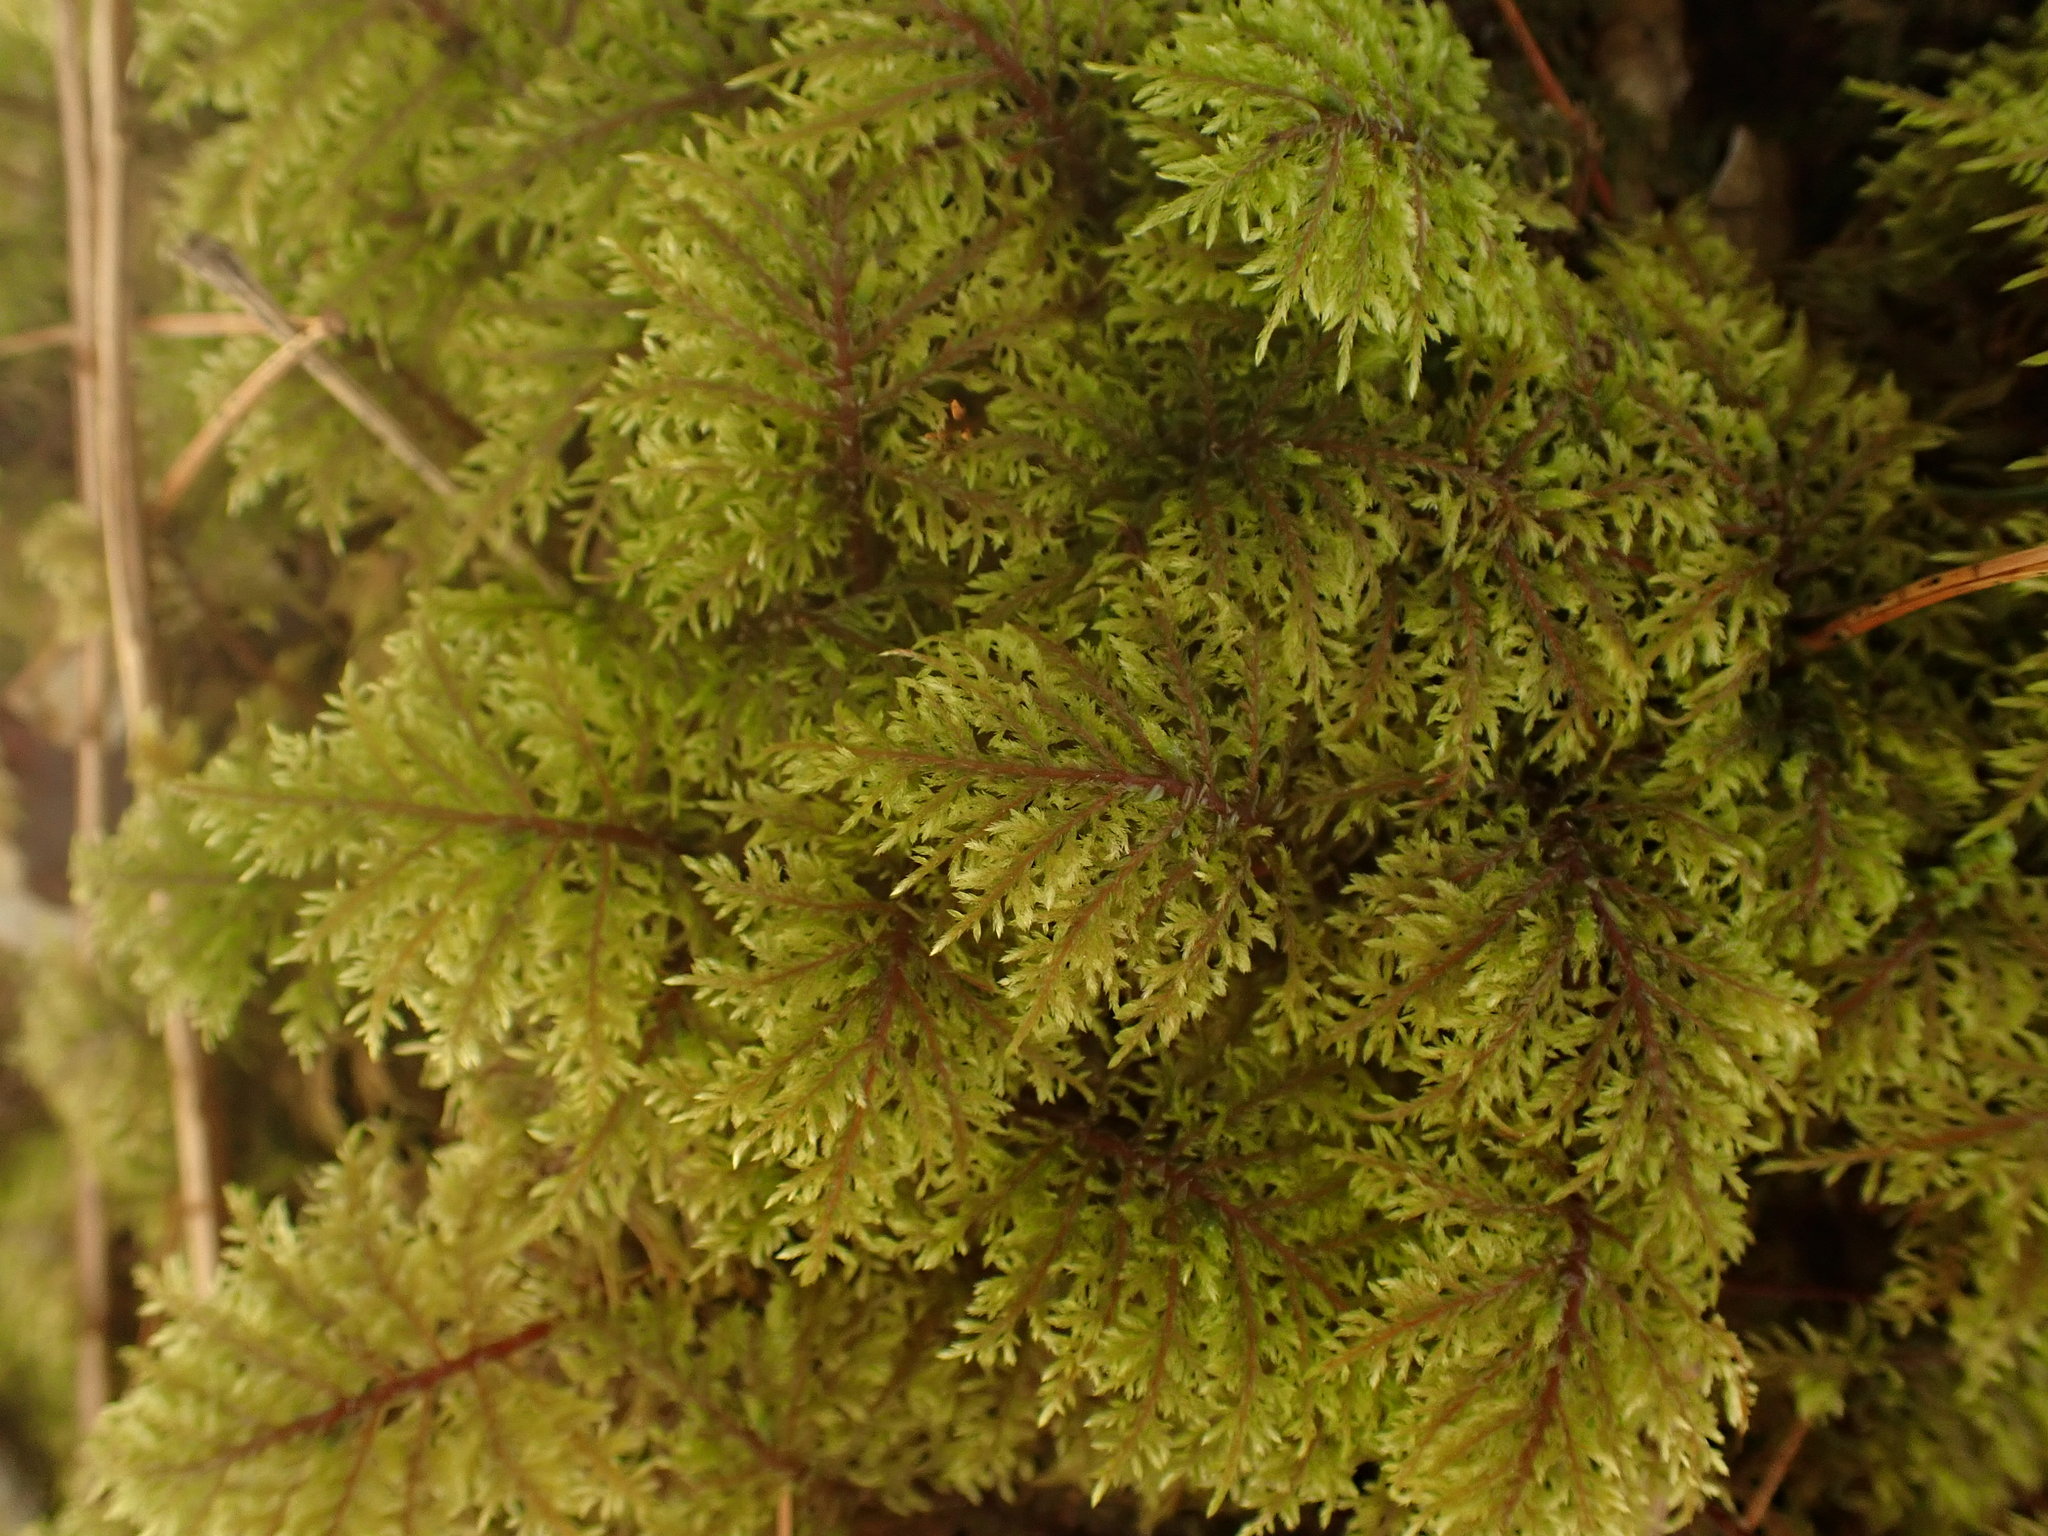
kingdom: Plantae
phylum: Bryophyta
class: Bryopsida
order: Hypnales
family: Hylocomiaceae
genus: Hylocomium
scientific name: Hylocomium splendens
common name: Stairstep moss
